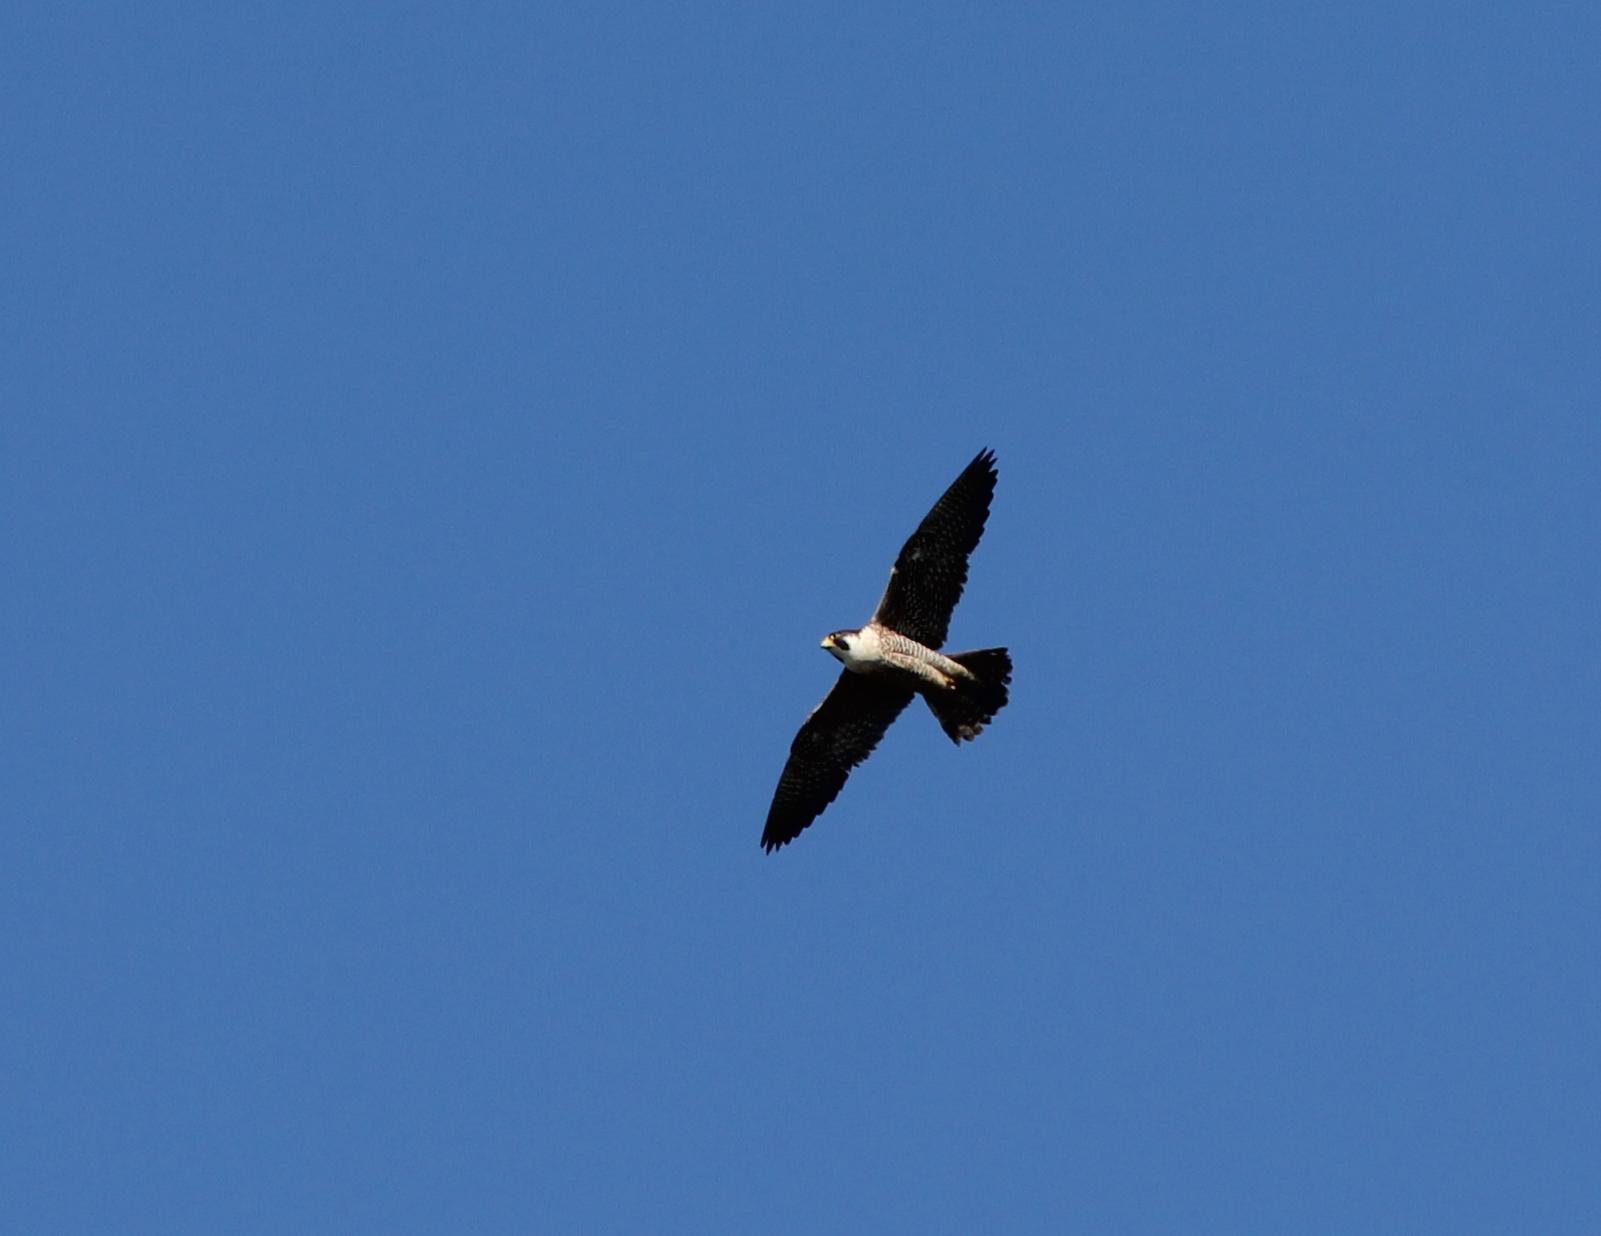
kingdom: Animalia
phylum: Chordata
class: Aves
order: Falconiformes
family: Falconidae
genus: Falco
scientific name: Falco peregrinus
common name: Peregrine falcon
